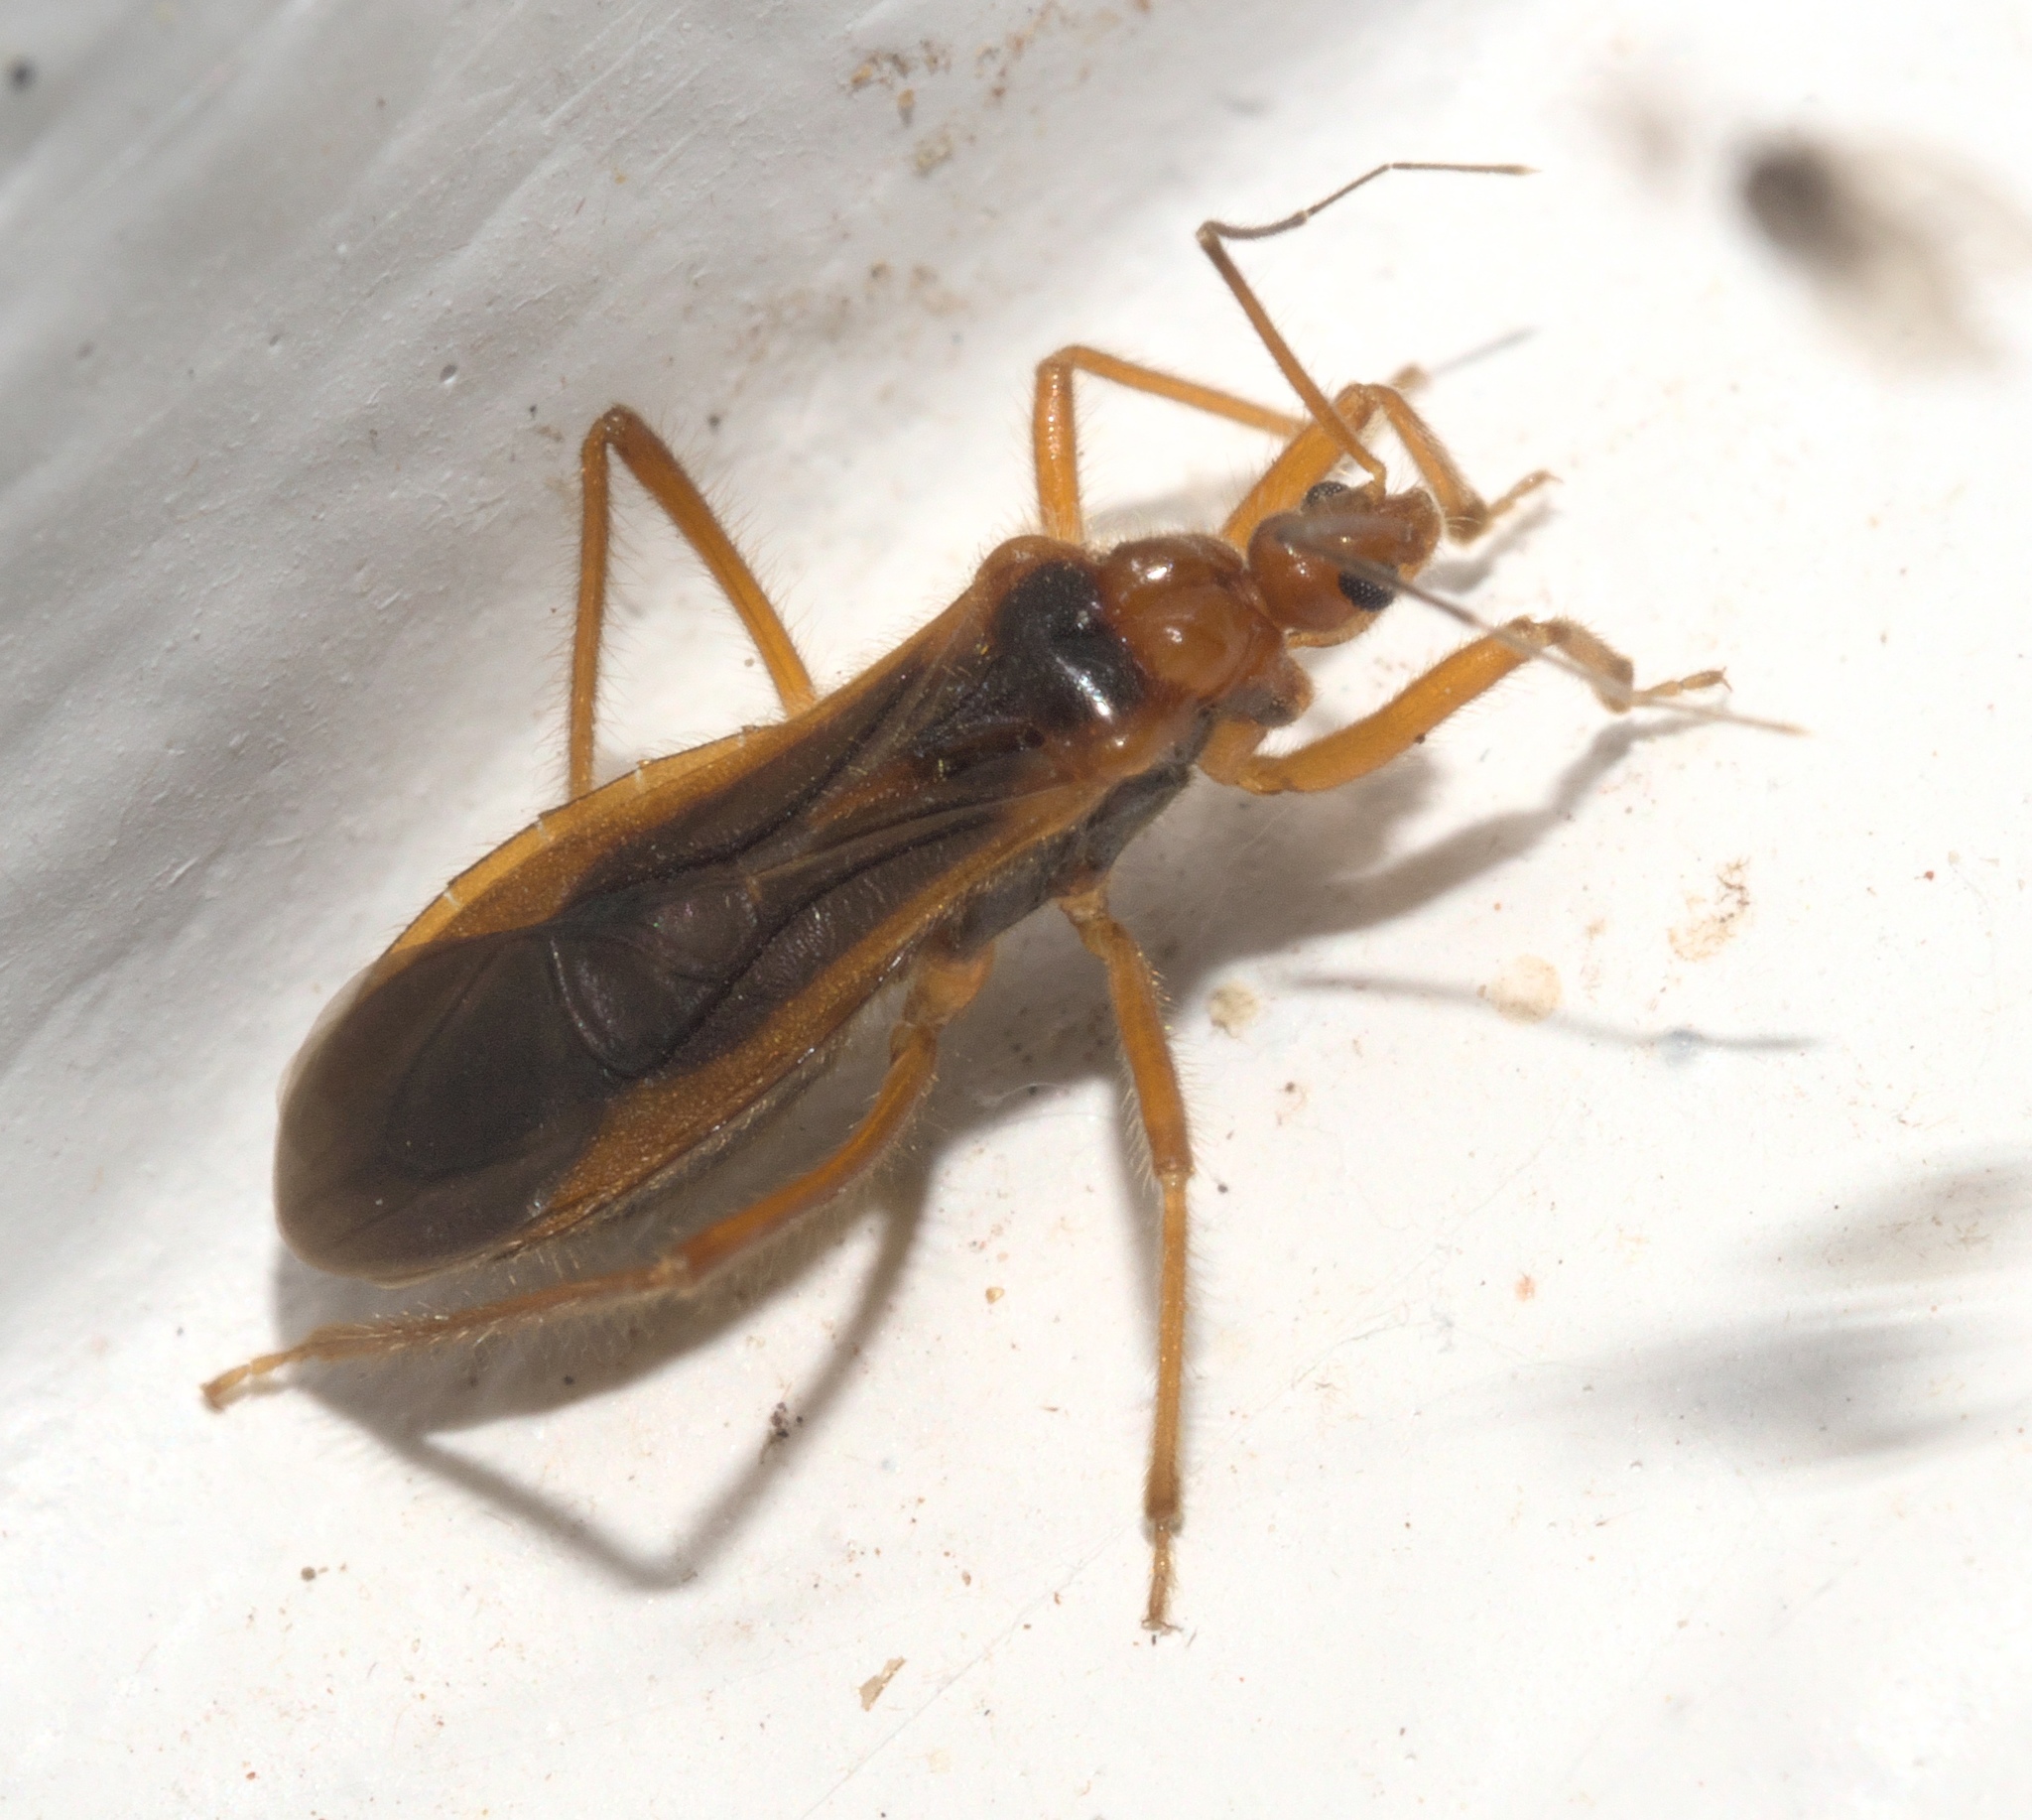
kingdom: Animalia
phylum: Arthropoda
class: Insecta
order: Hemiptera
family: Reduviidae
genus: Oncerotrachelus
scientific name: Oncerotrachelus acuminatus
